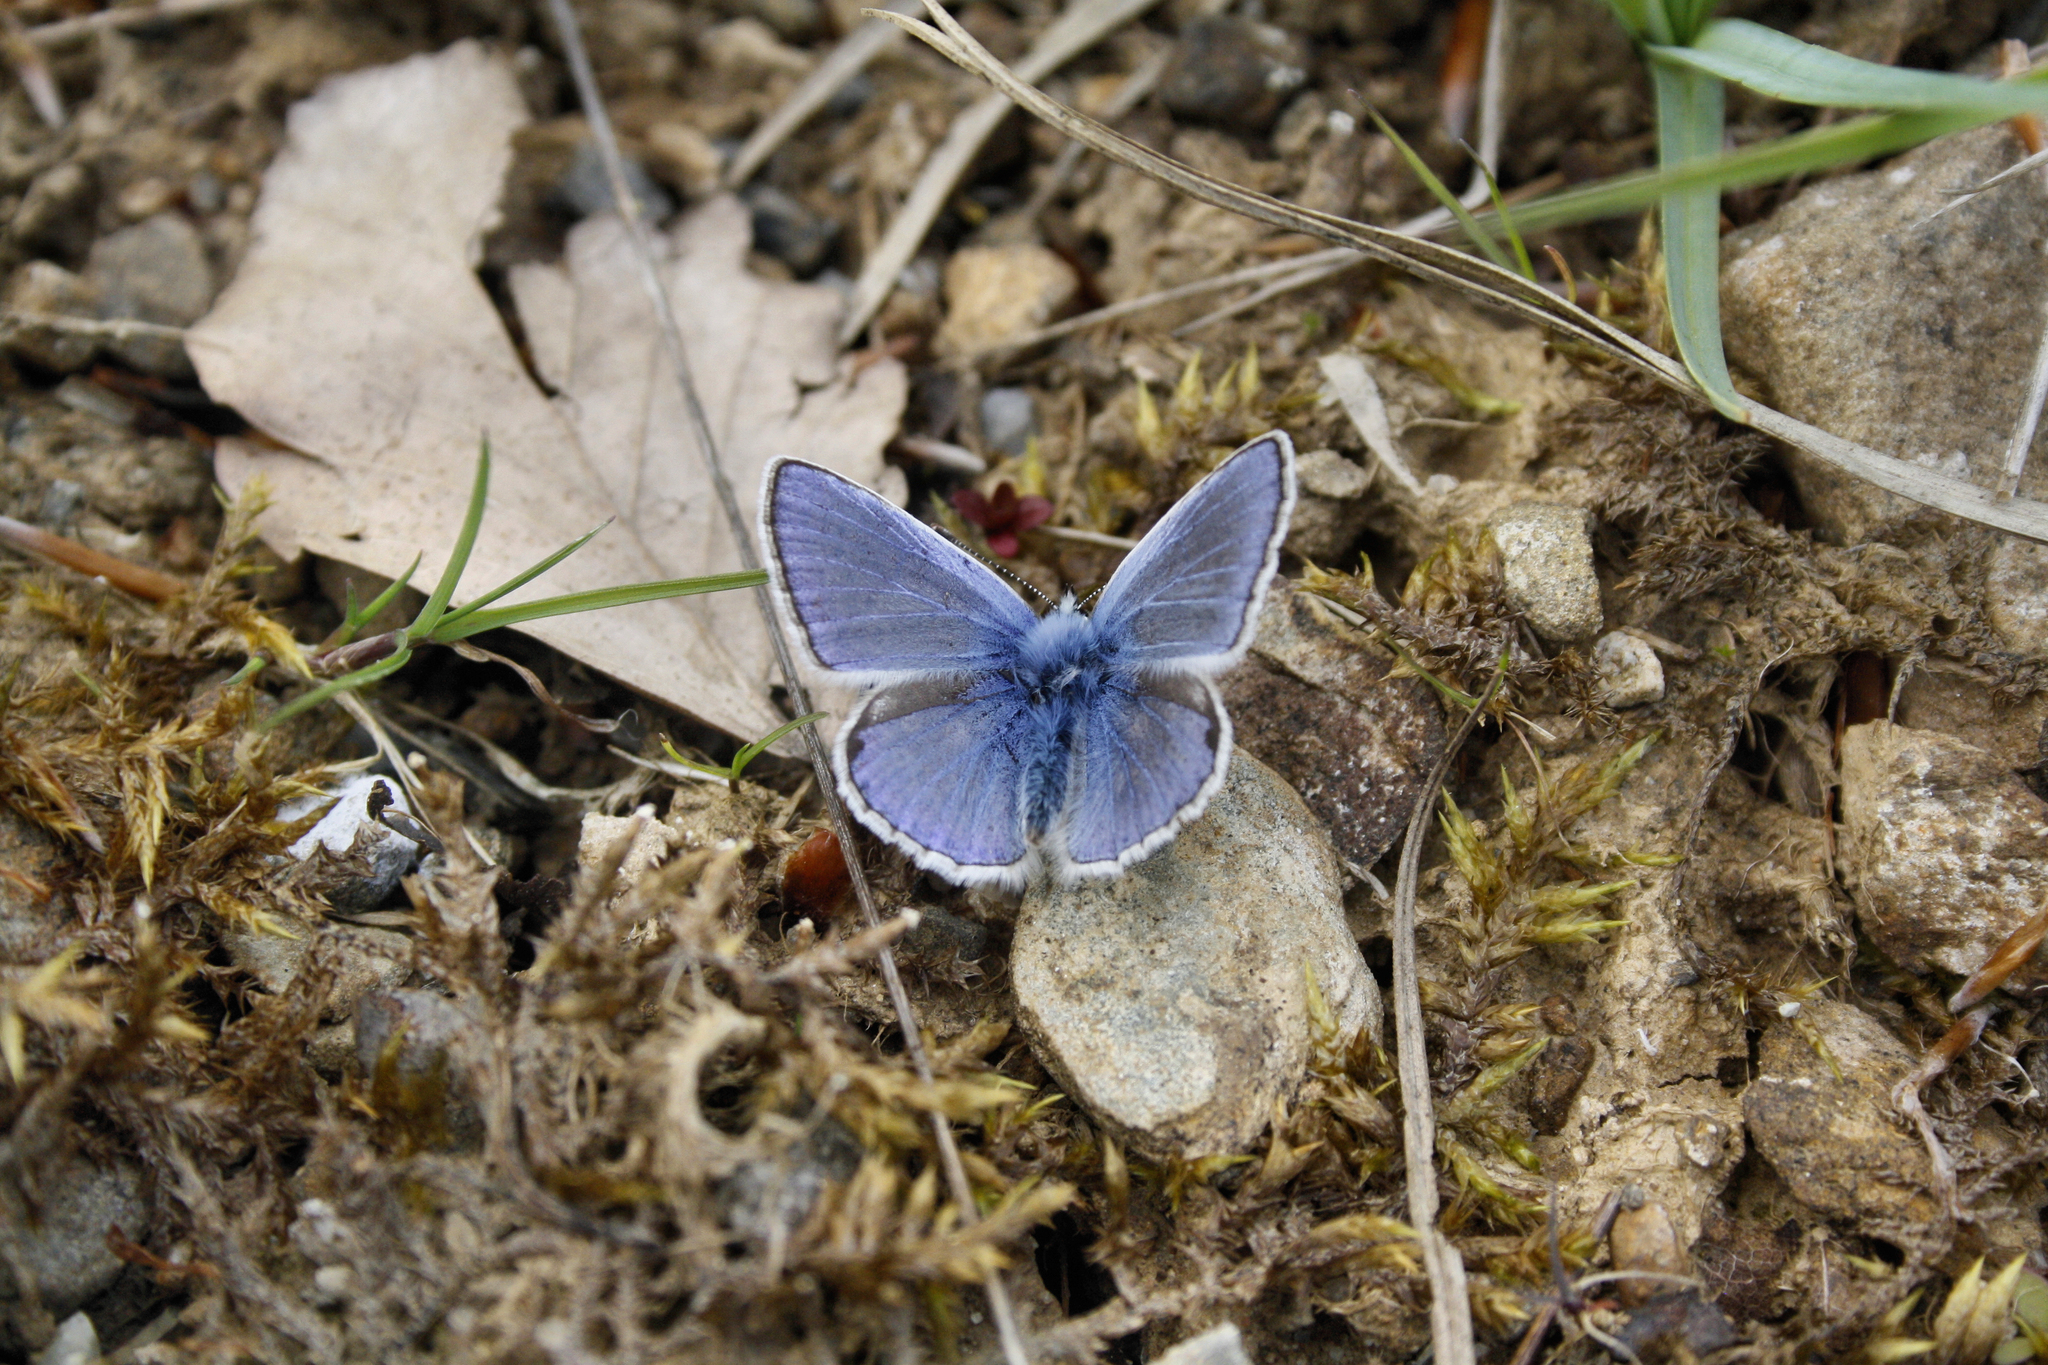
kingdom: Animalia
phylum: Arthropoda
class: Insecta
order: Lepidoptera
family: Lycaenidae
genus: Polyommatus
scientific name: Polyommatus icarus
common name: Common blue
